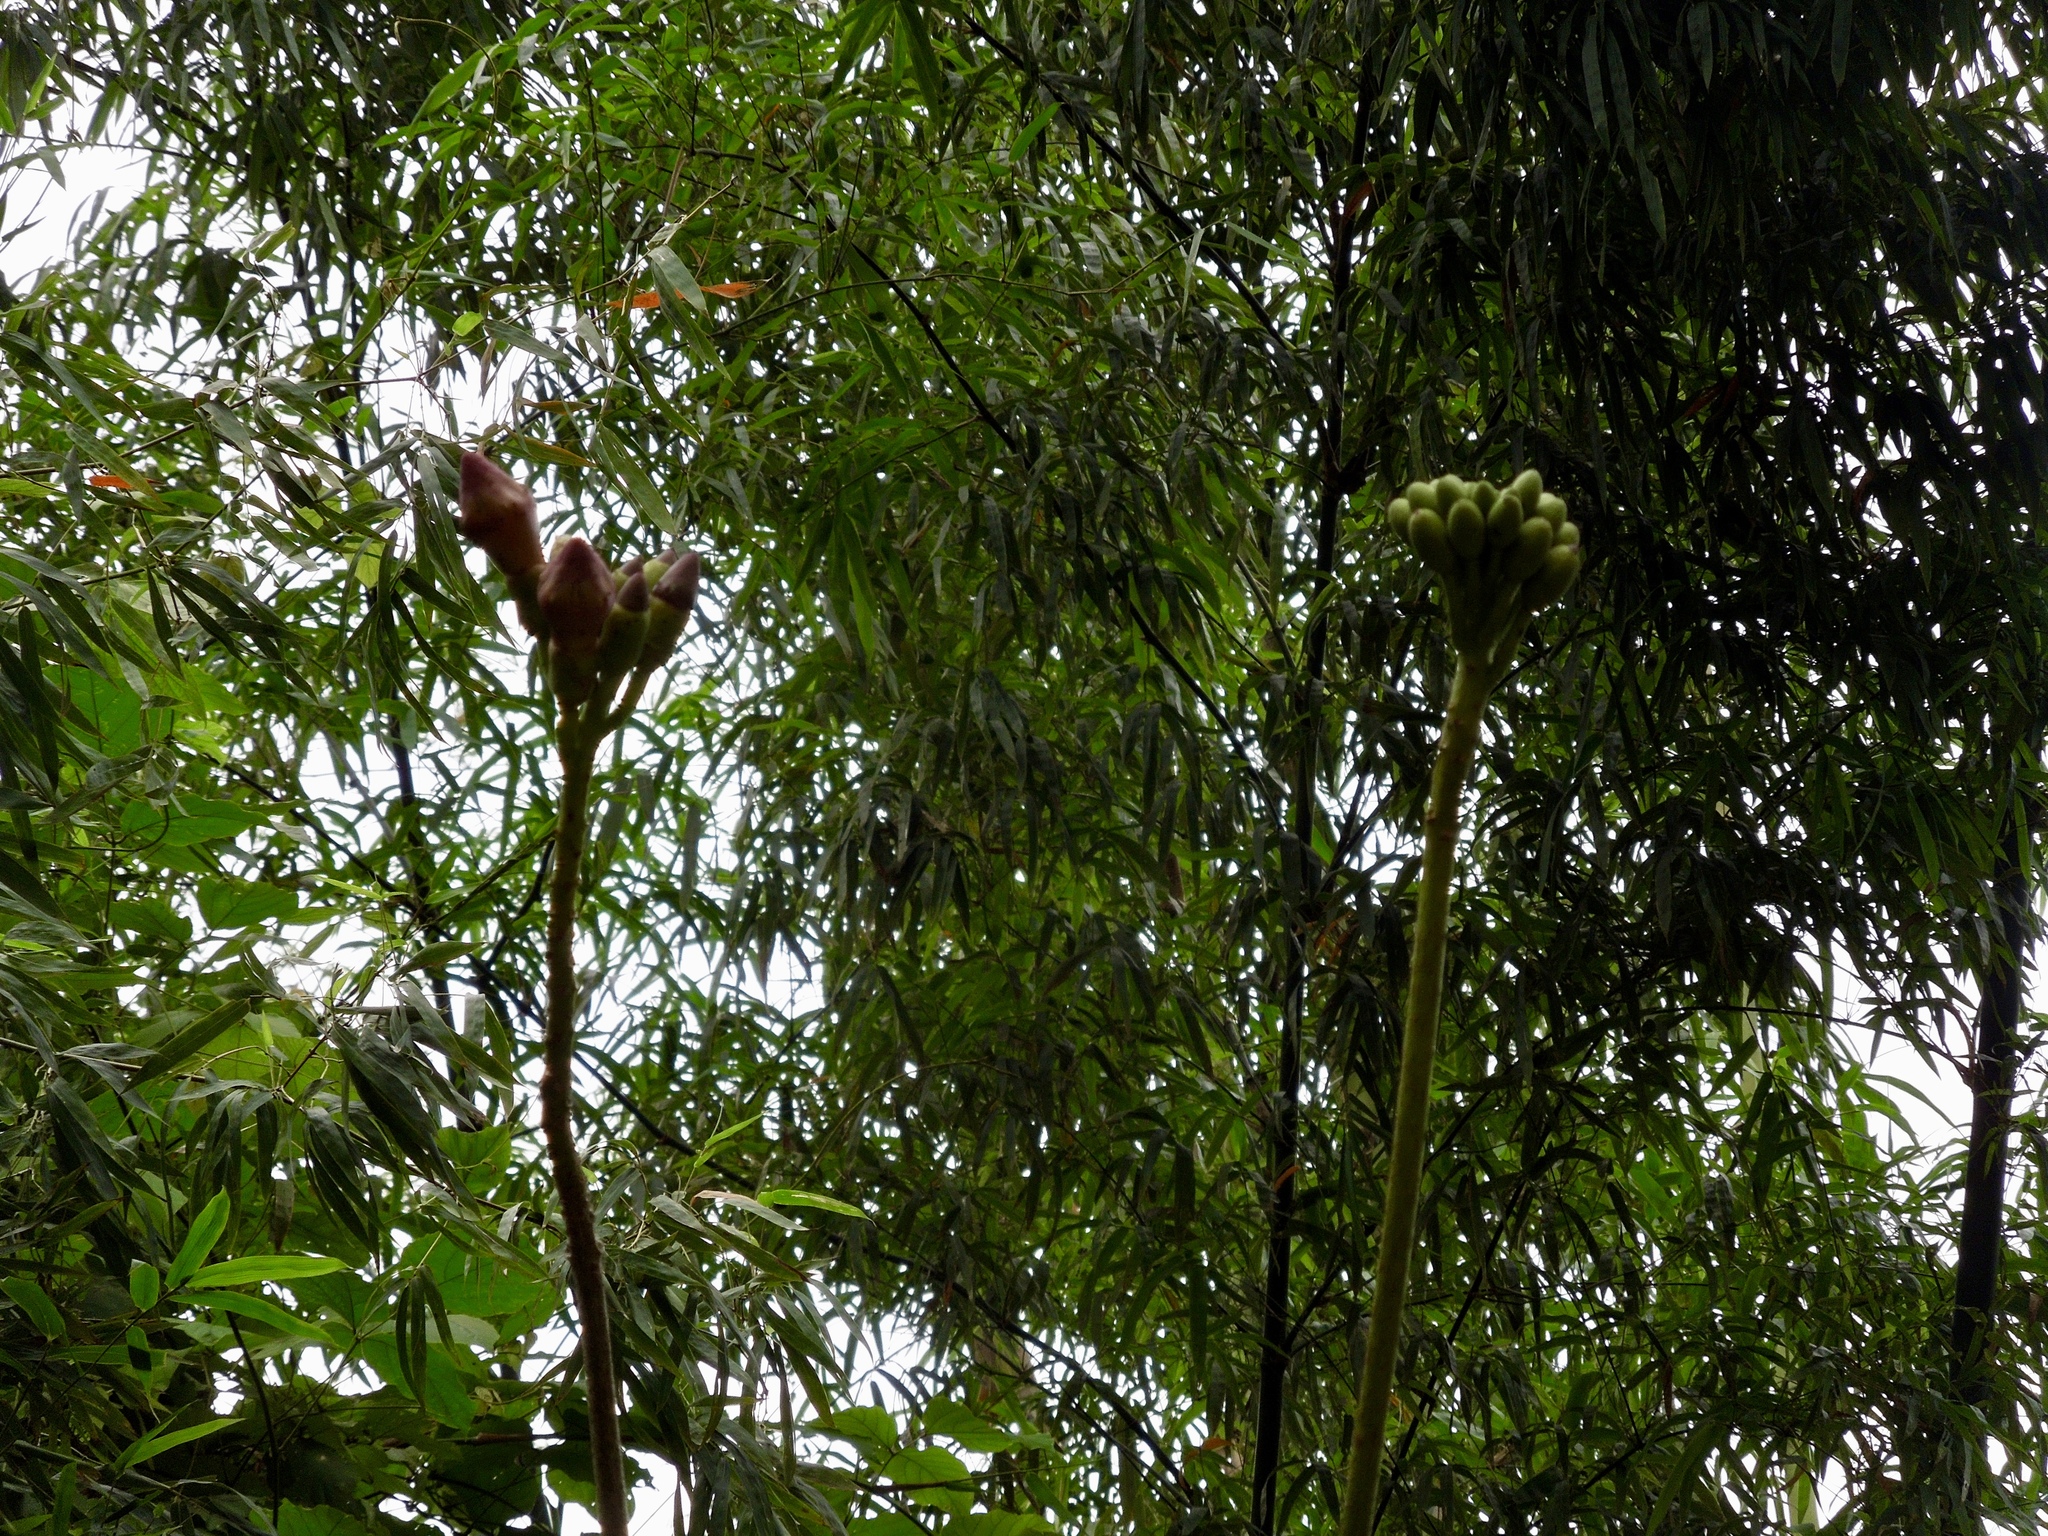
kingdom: Plantae
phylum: Tracheophyta
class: Magnoliopsida
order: Lamiales
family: Bignoniaceae
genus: Oroxylum
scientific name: Oroxylum indicum
